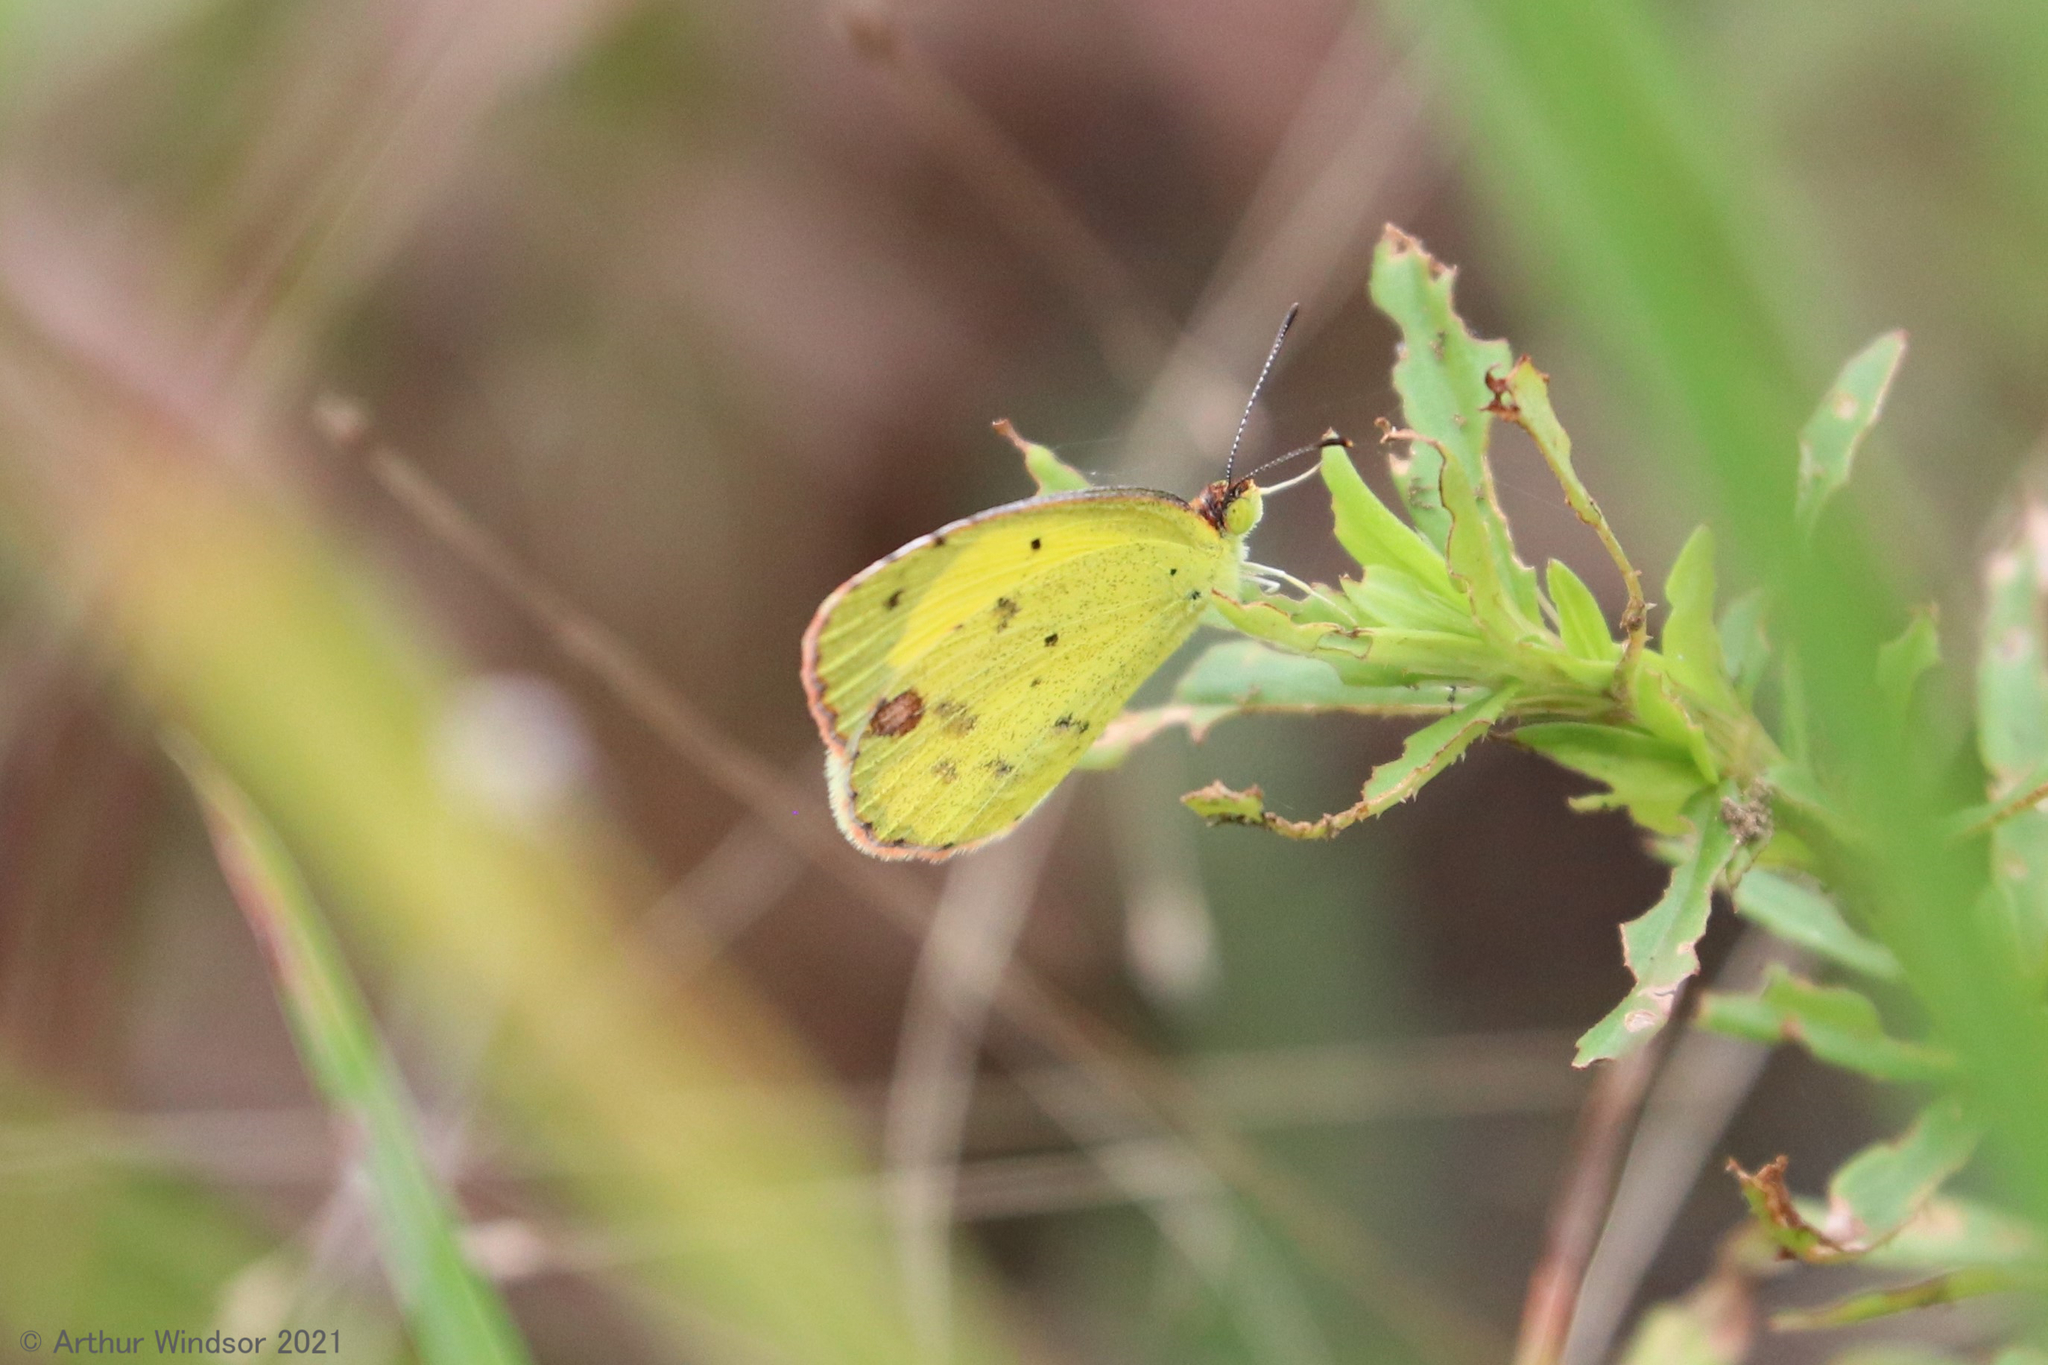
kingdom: Animalia
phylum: Arthropoda
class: Insecta
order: Lepidoptera
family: Pieridae
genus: Pyrisitia
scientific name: Pyrisitia lisa
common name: Little yellow
